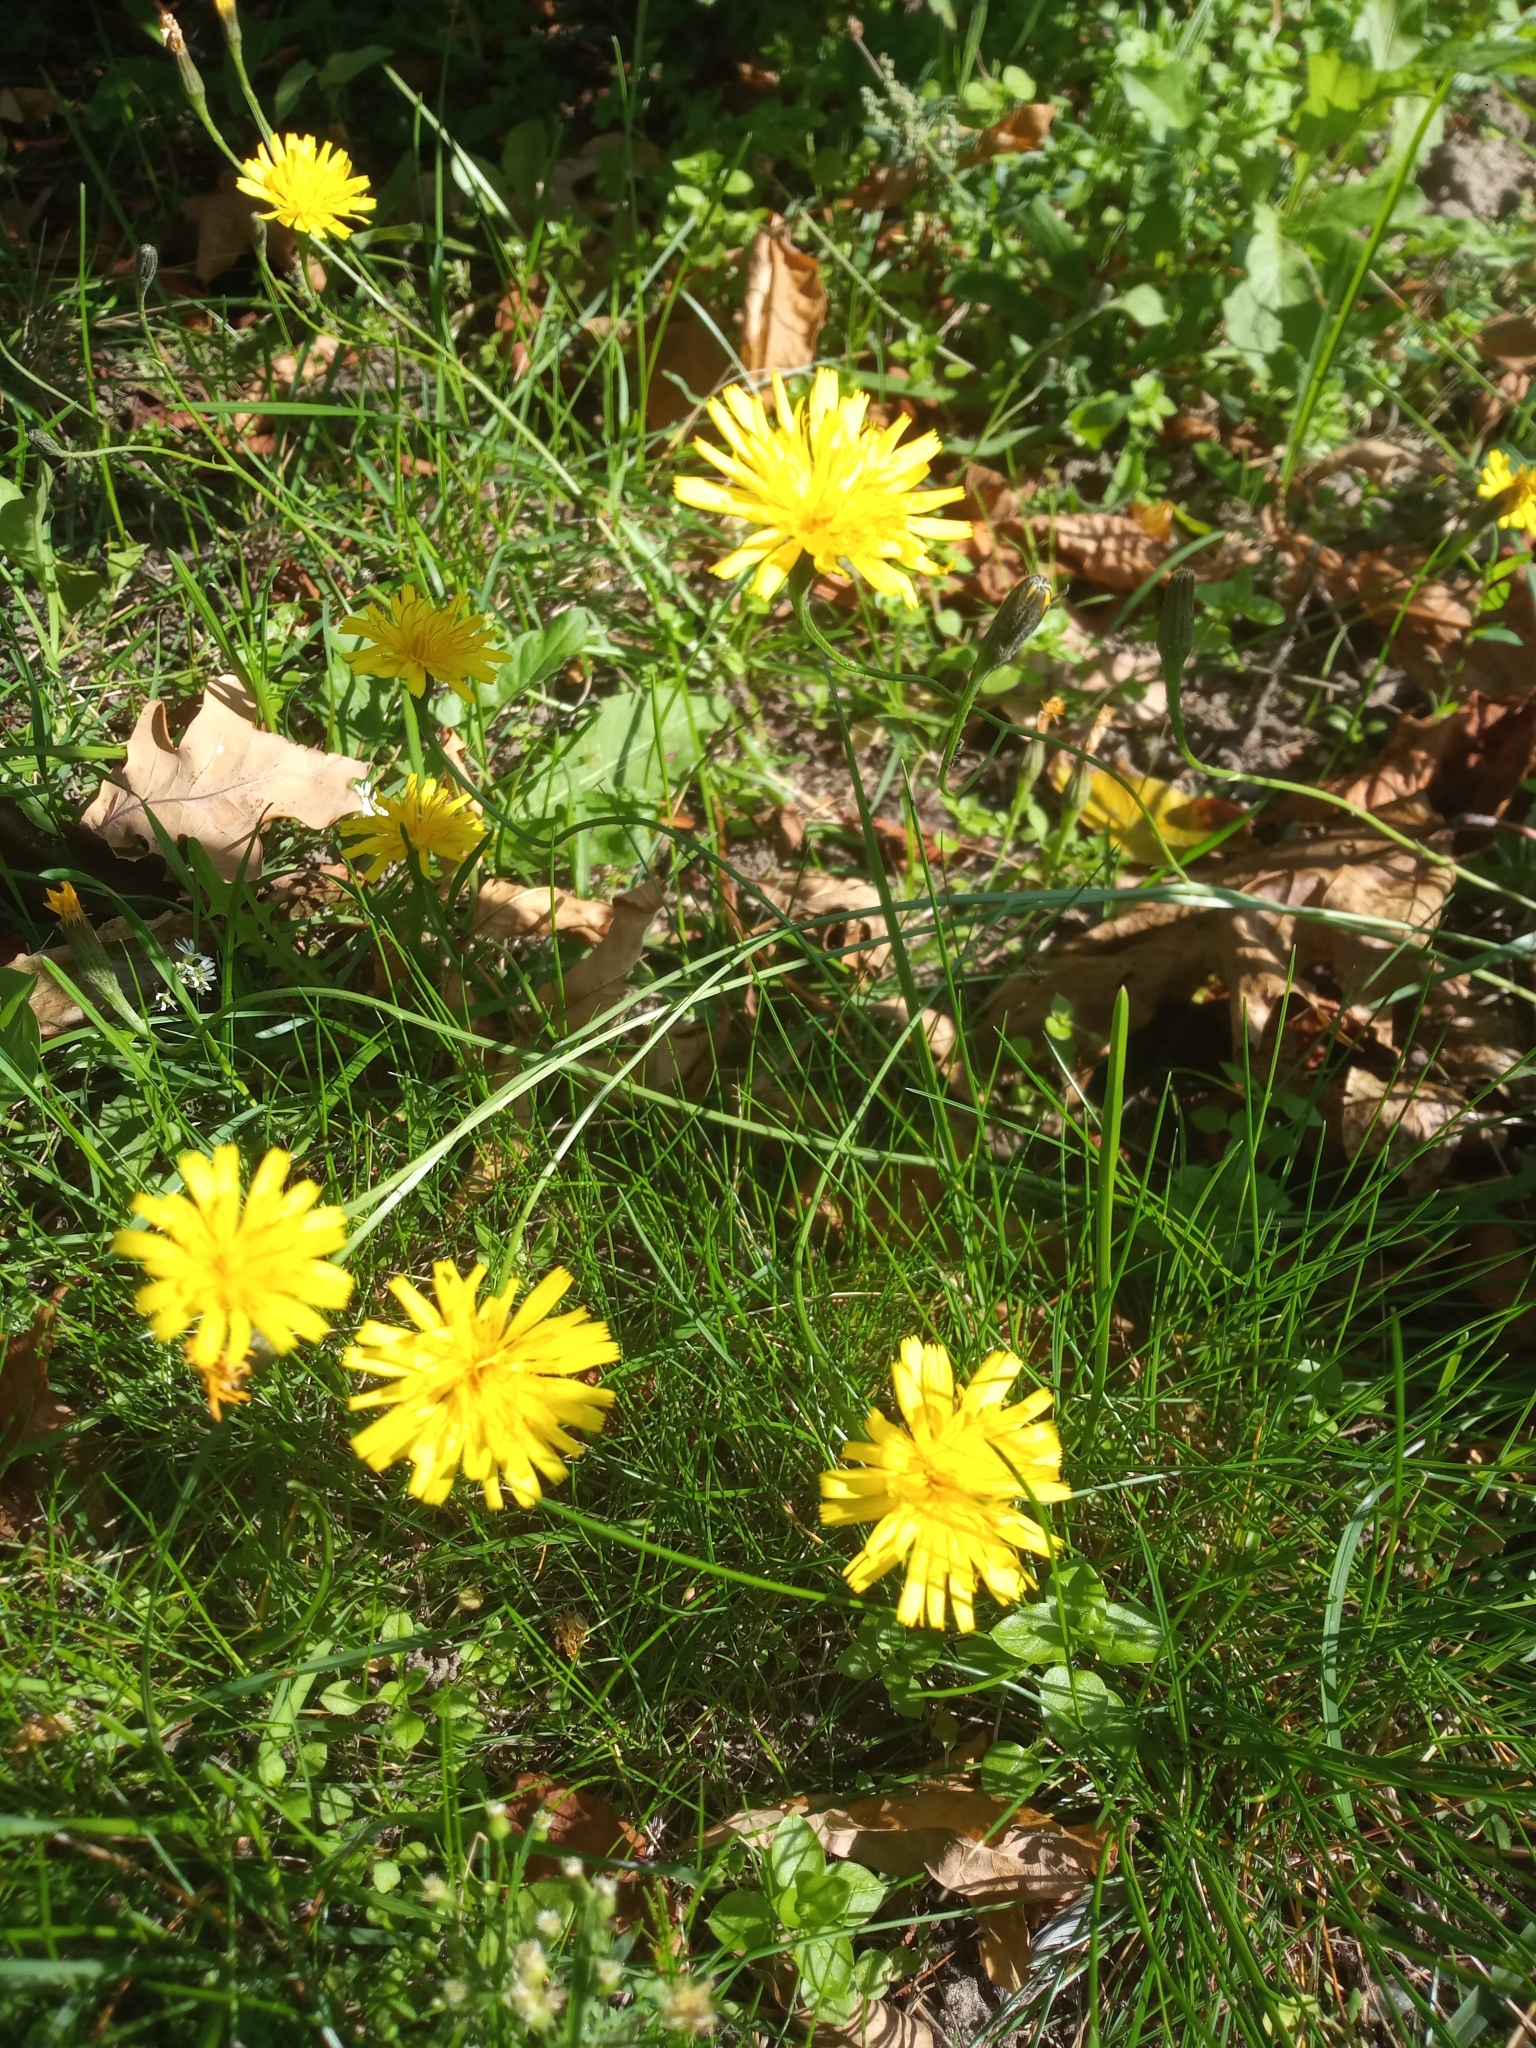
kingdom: Plantae
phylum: Tracheophyta
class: Magnoliopsida
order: Asterales
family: Asteraceae
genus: Scorzoneroides
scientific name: Scorzoneroides autumnalis
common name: Autumn hawkbit
